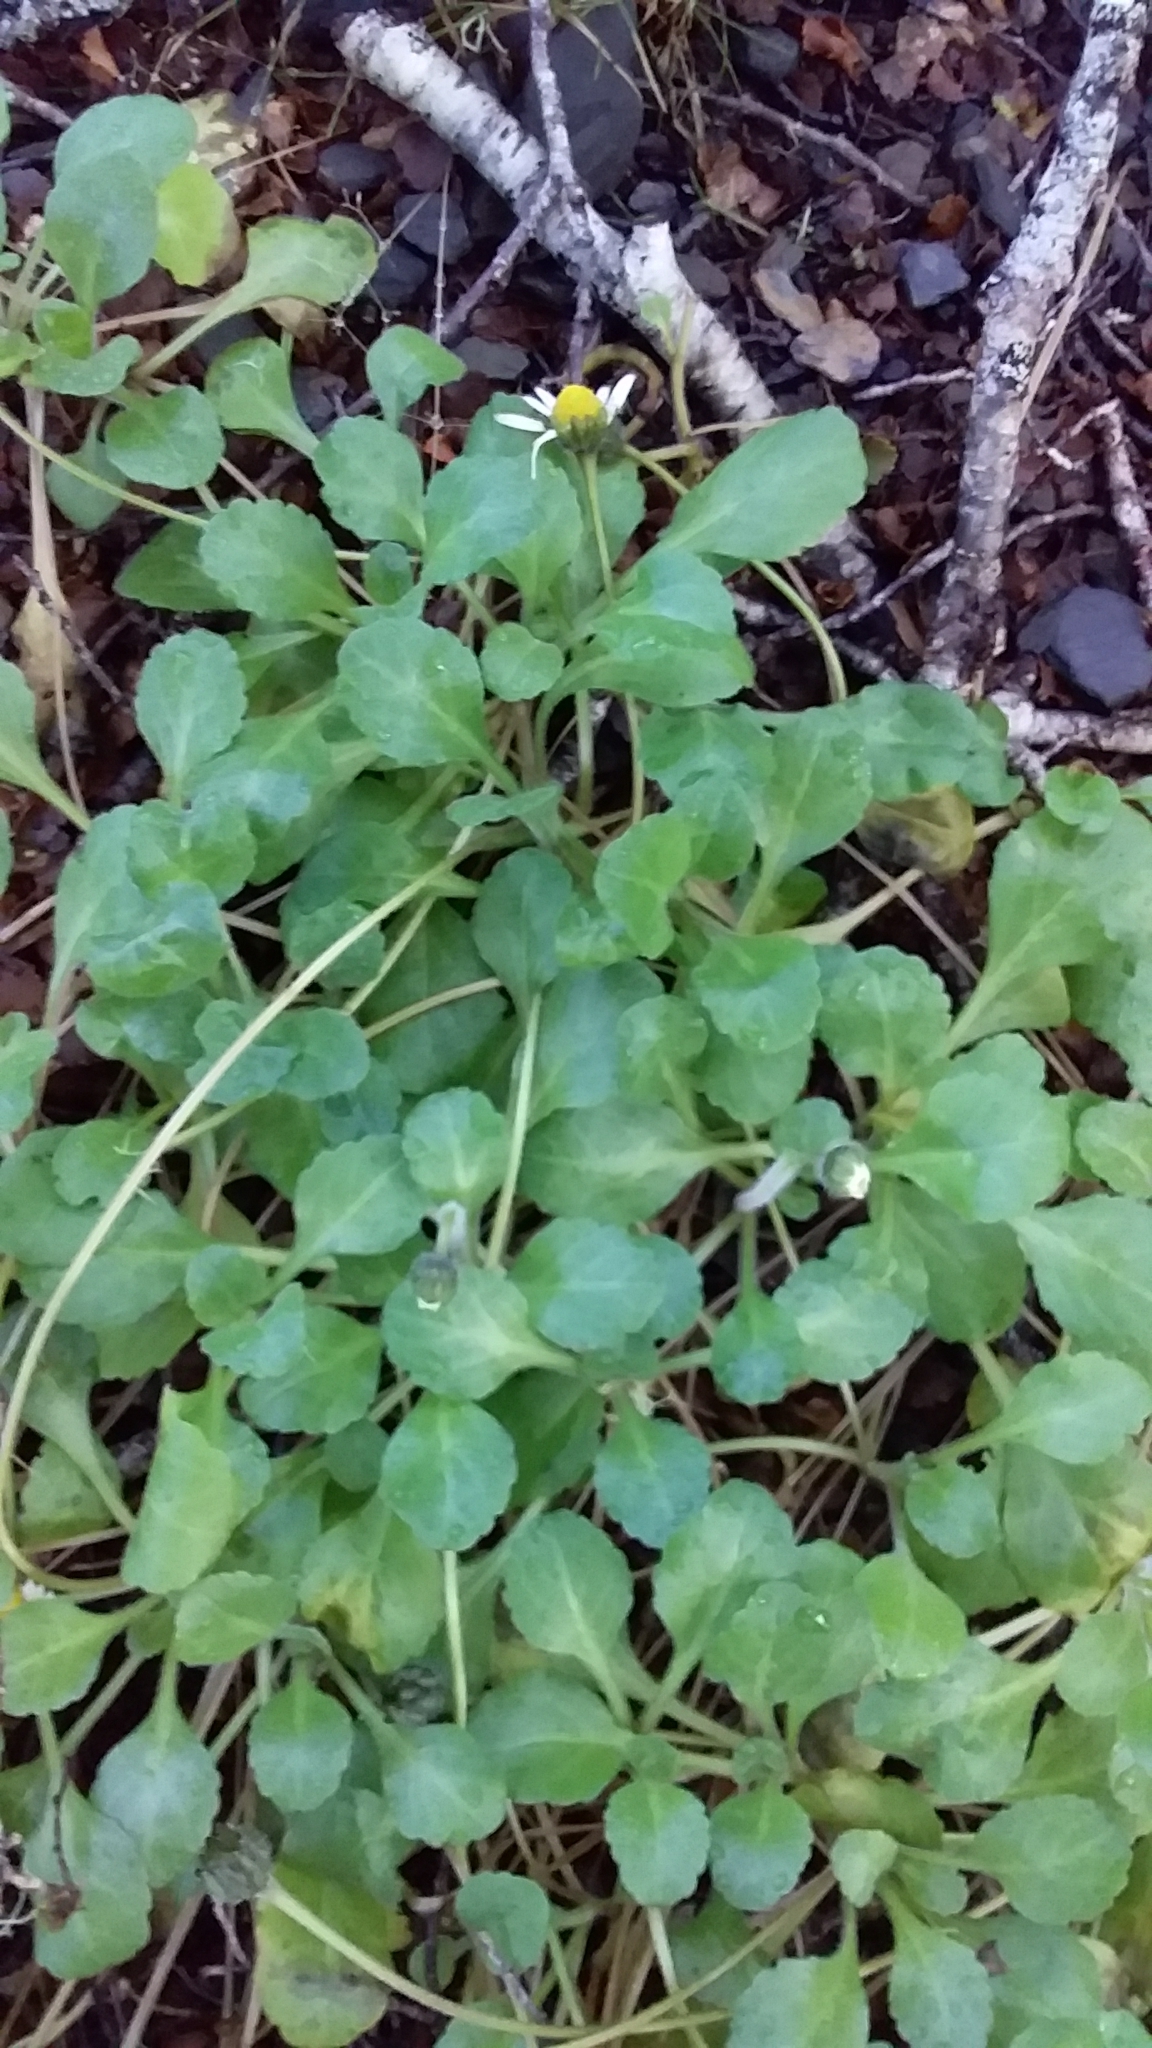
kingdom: Plantae
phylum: Tracheophyta
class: Magnoliopsida
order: Asterales
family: Asteraceae
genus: Bellis
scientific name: Bellis perennis
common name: Lawndaisy
